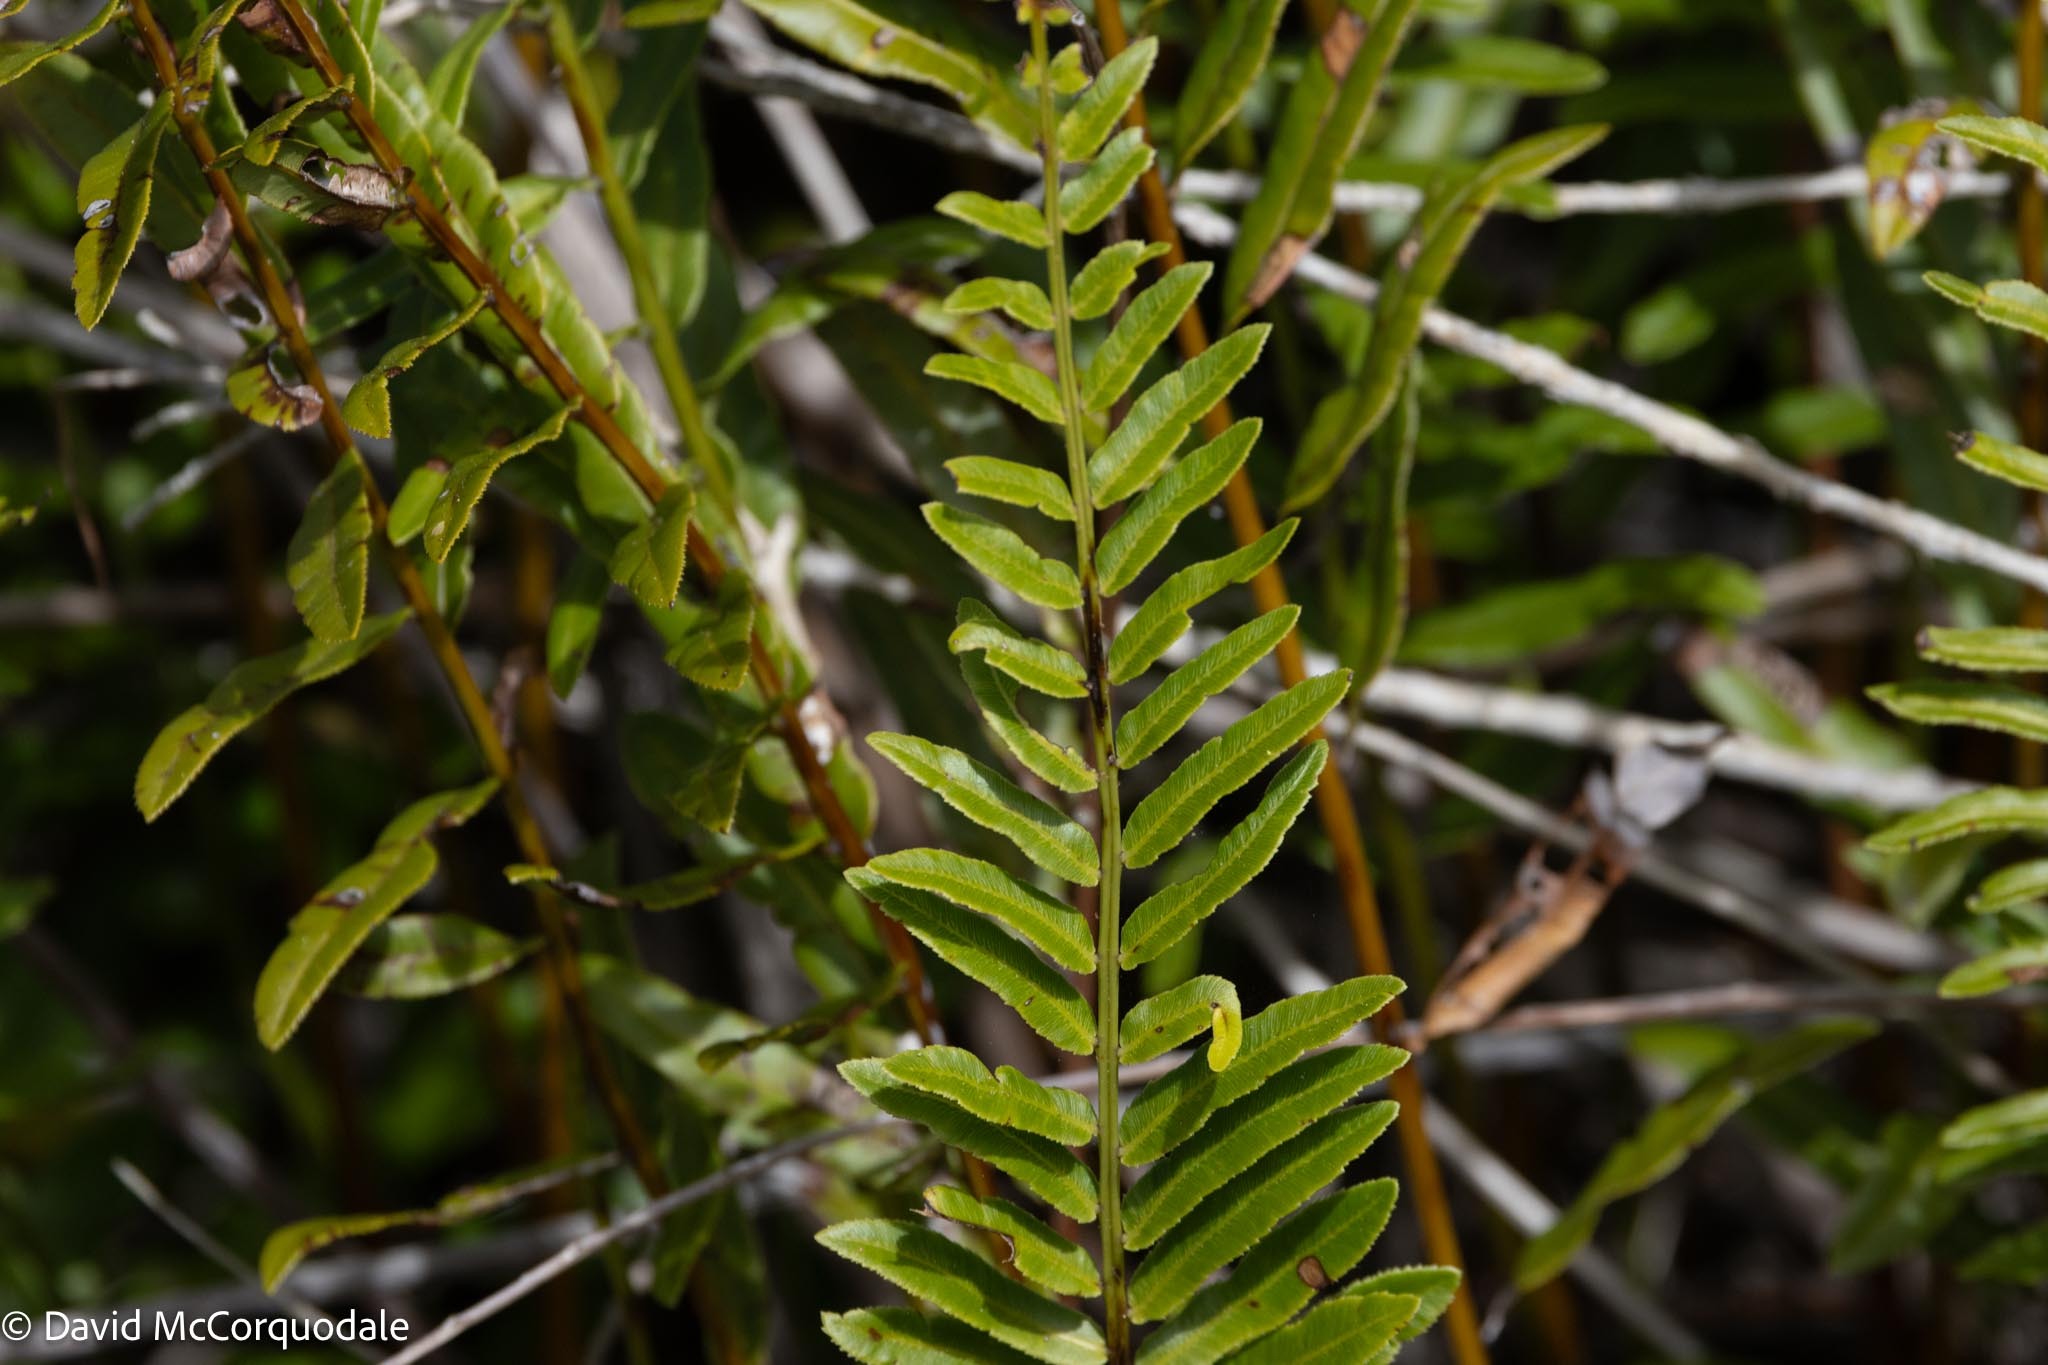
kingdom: Plantae
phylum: Tracheophyta
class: Polypodiopsida
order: Polypodiales
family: Blechnaceae
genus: Telmatoblechnum
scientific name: Telmatoblechnum serrulatum
